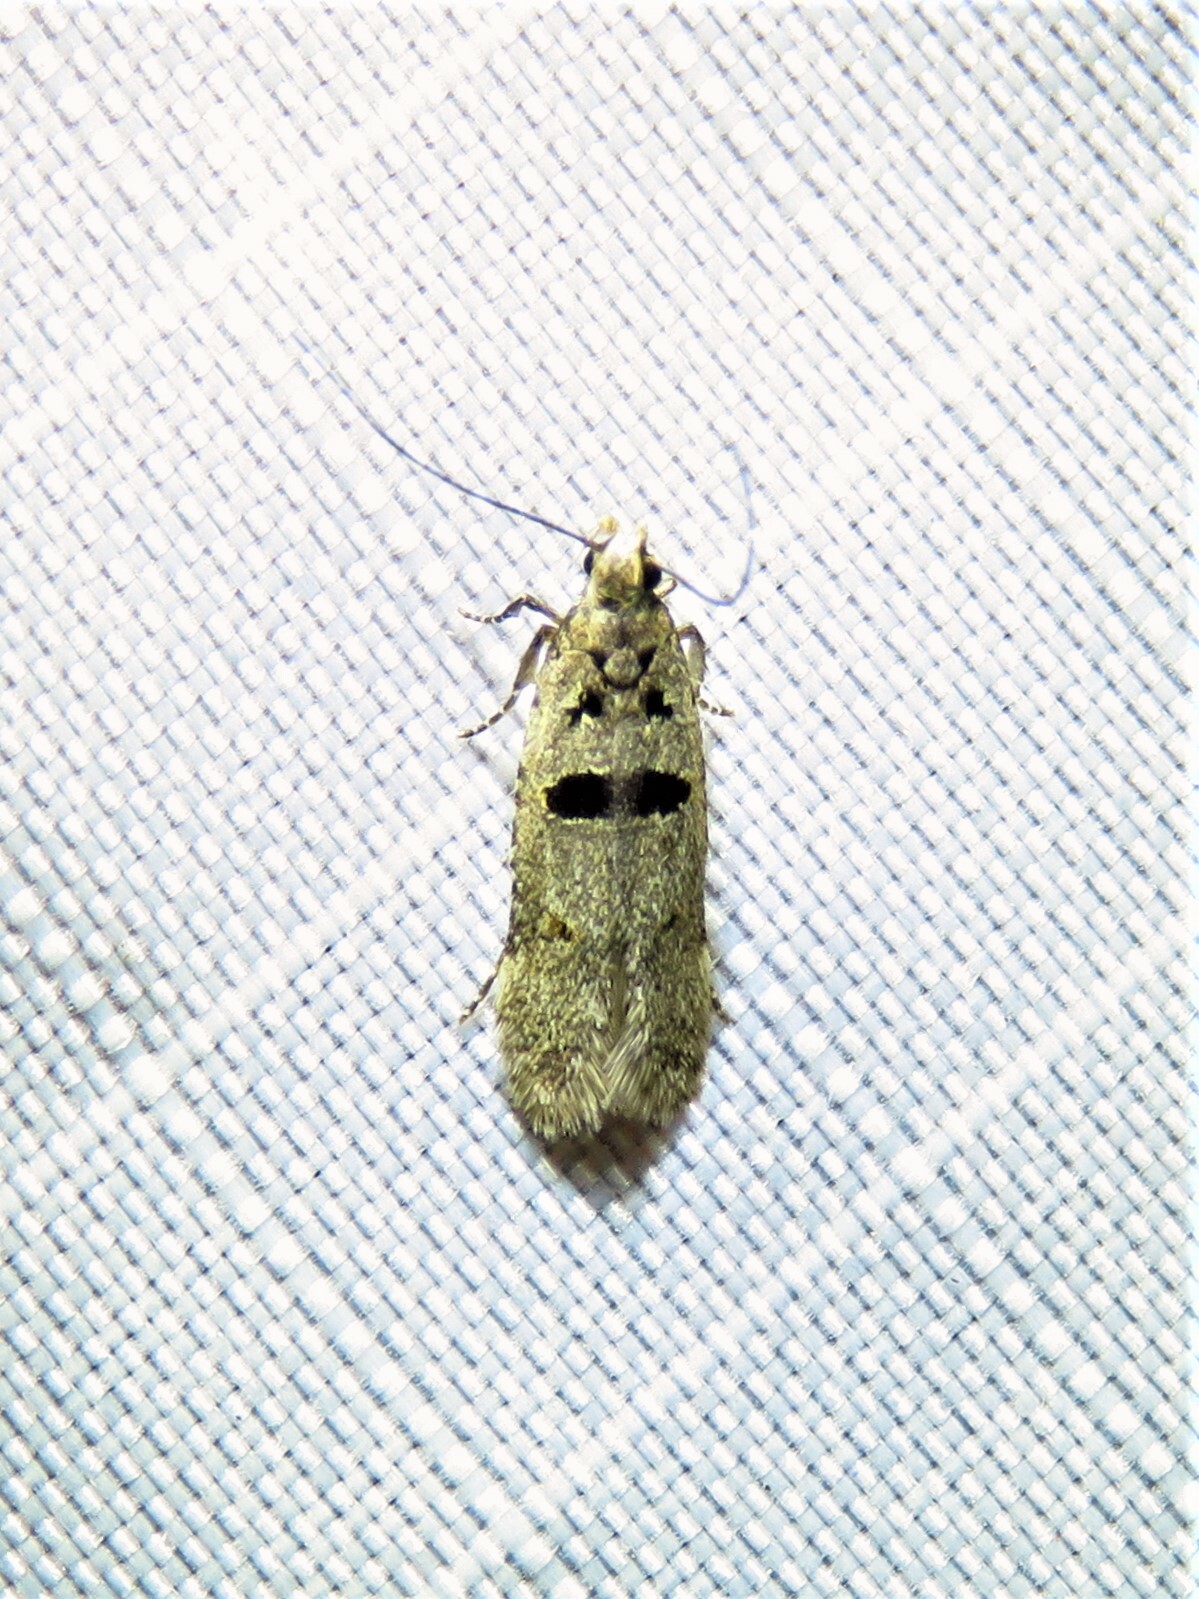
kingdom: Animalia
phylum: Arthropoda
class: Insecta
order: Lepidoptera
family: Gelechiidae
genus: Deltophora
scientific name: Deltophora glandiferella
